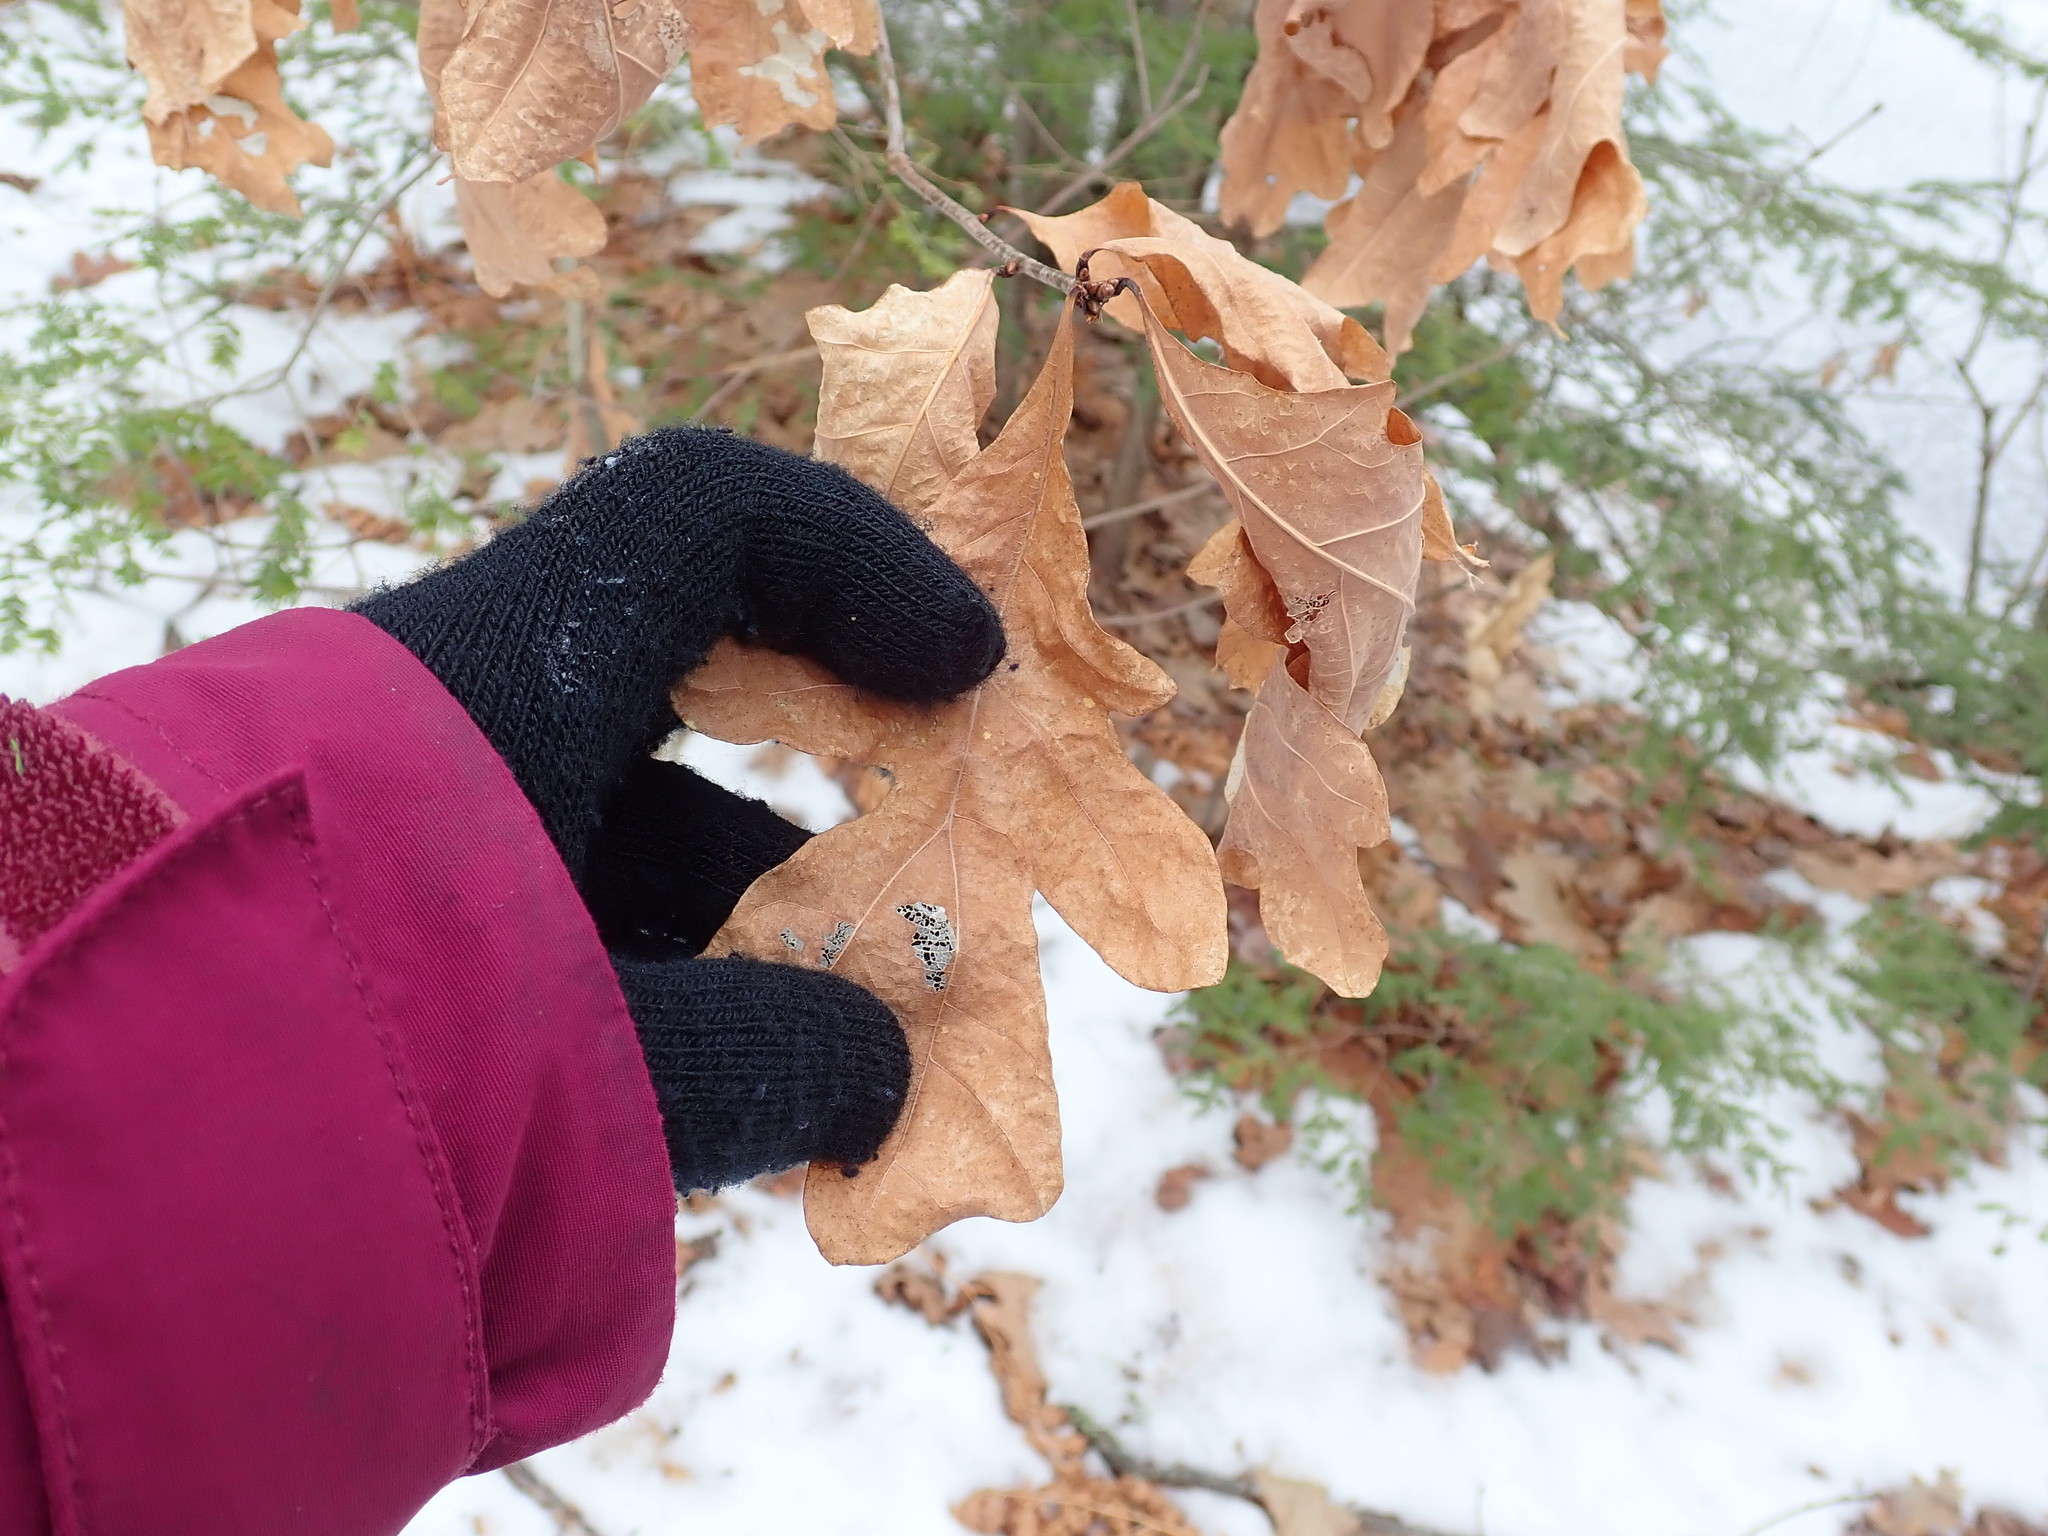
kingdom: Plantae
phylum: Tracheophyta
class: Magnoliopsida
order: Fagales
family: Fagaceae
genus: Quercus
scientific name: Quercus alba
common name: White oak
